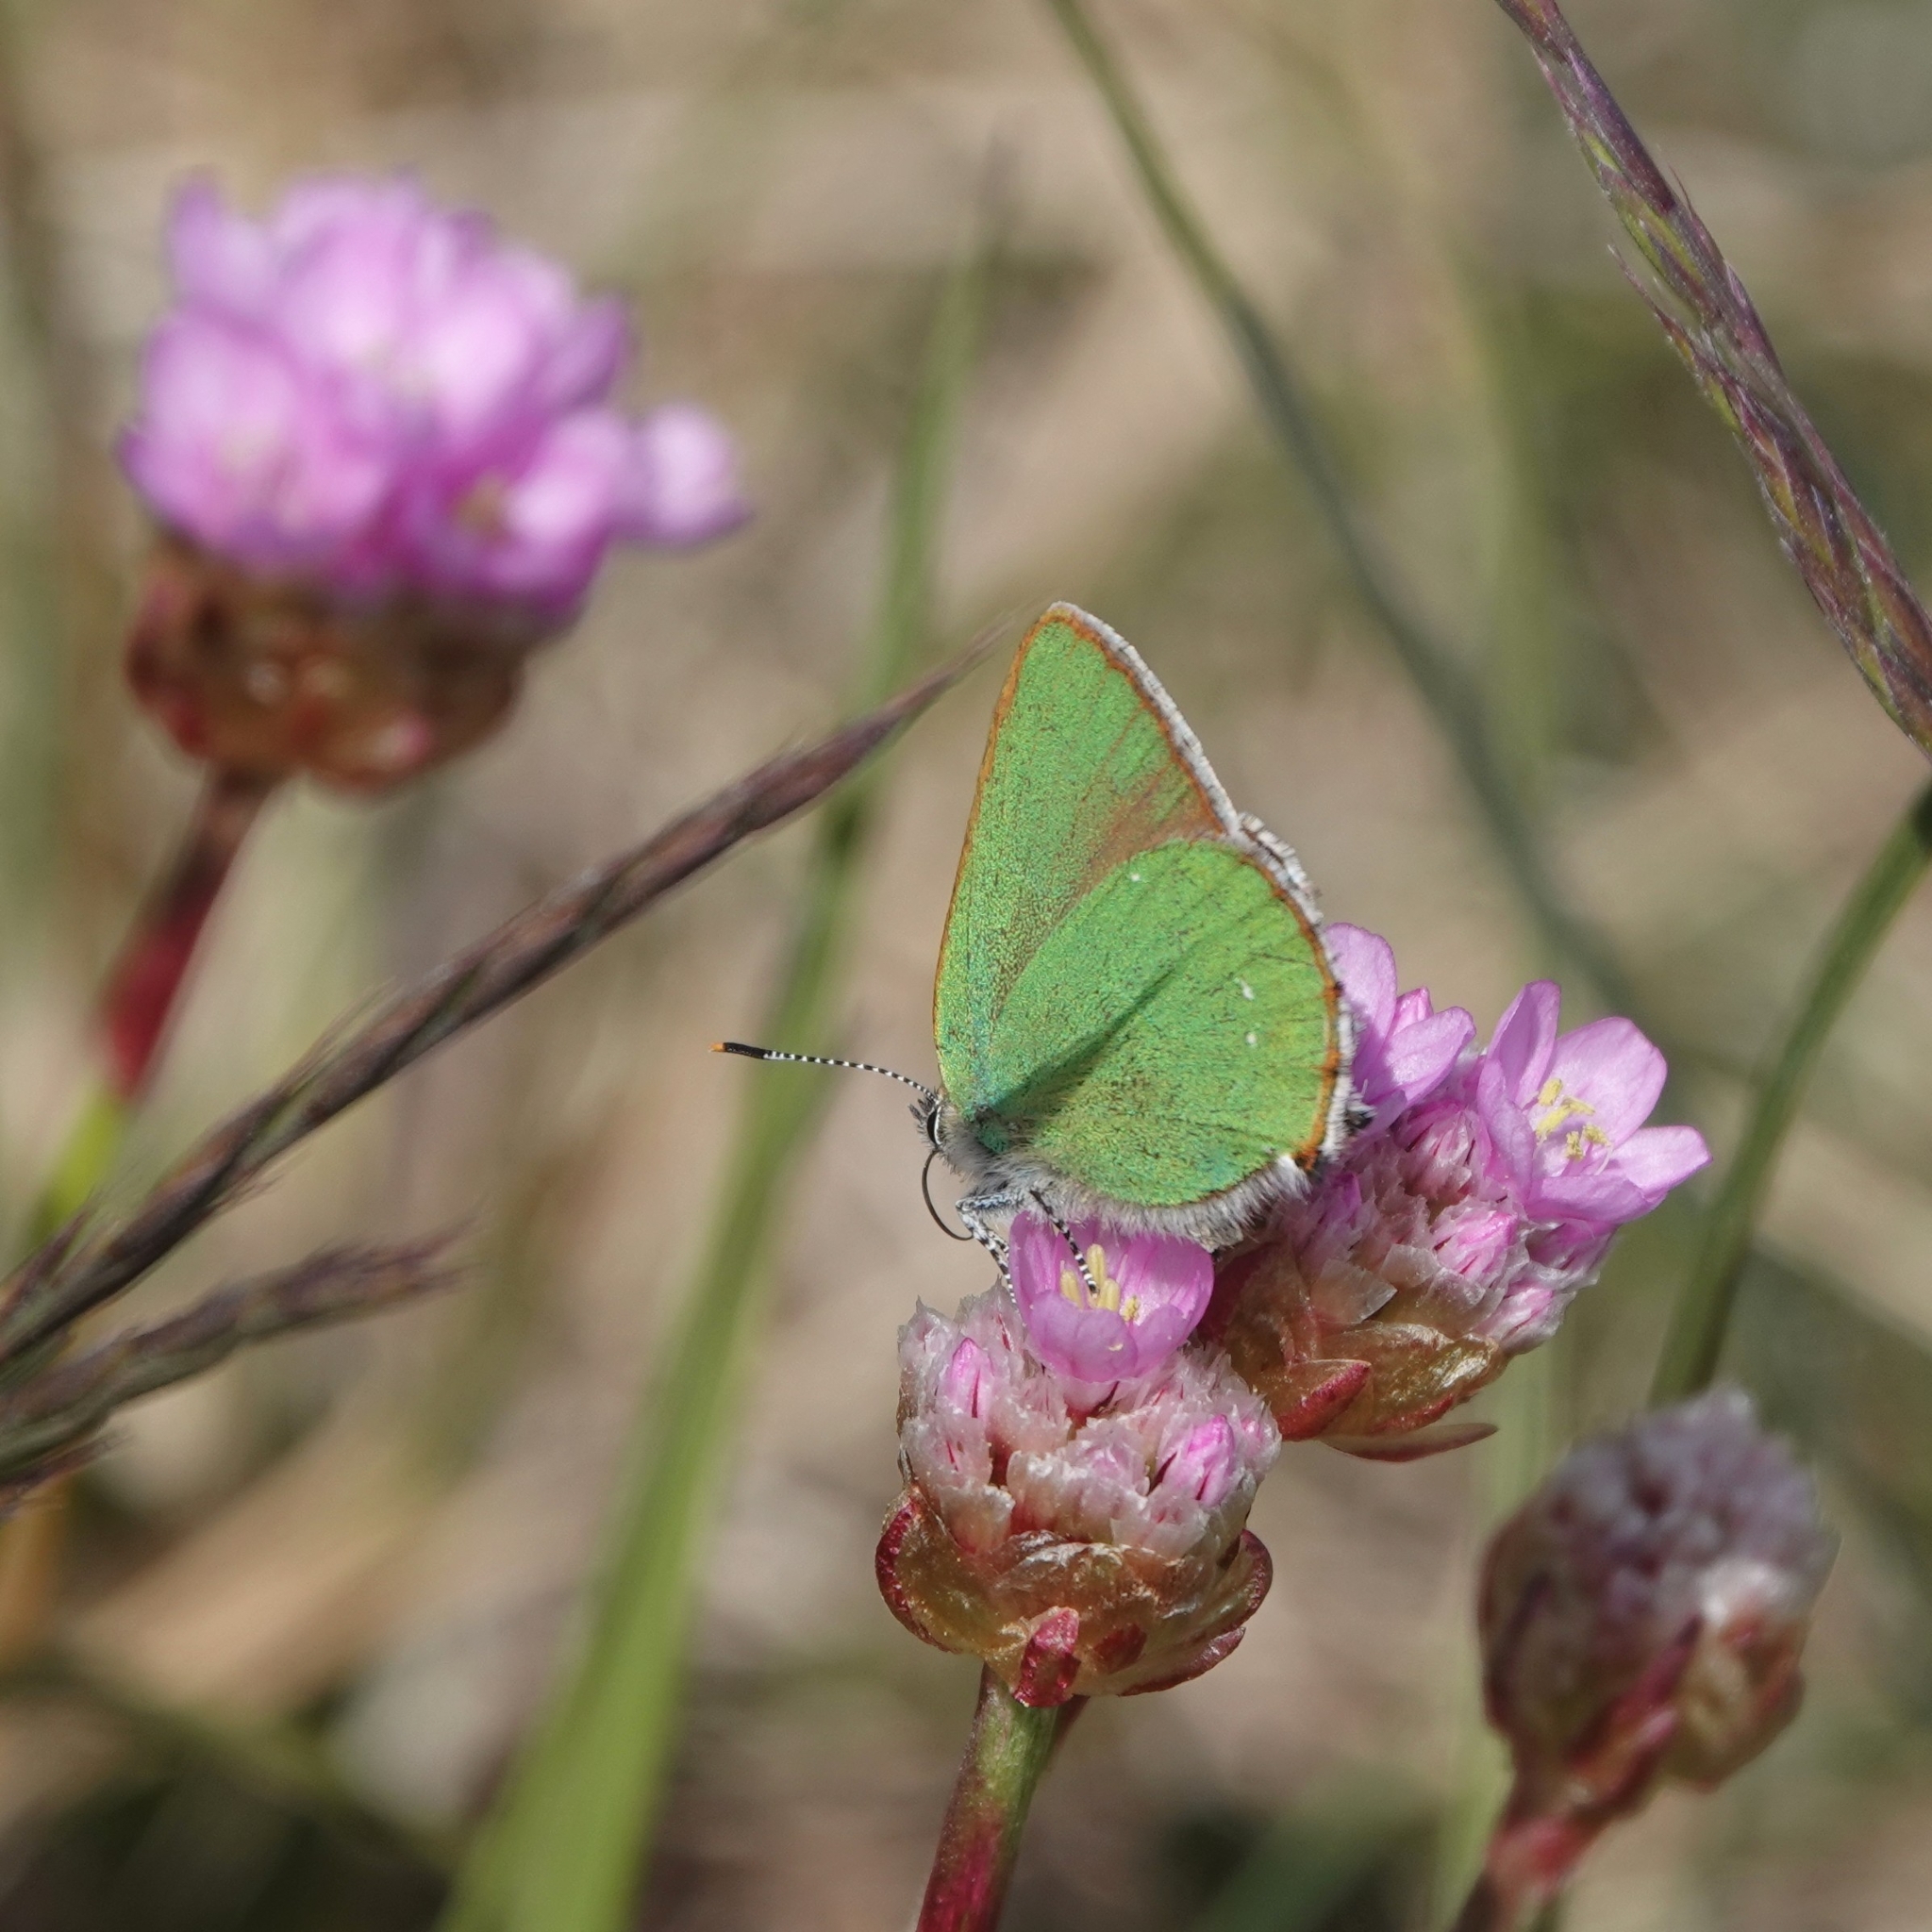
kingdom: Animalia
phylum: Arthropoda
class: Insecta
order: Lepidoptera
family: Lycaenidae
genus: Callophrys
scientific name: Callophrys rubi
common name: Green hairstreak
